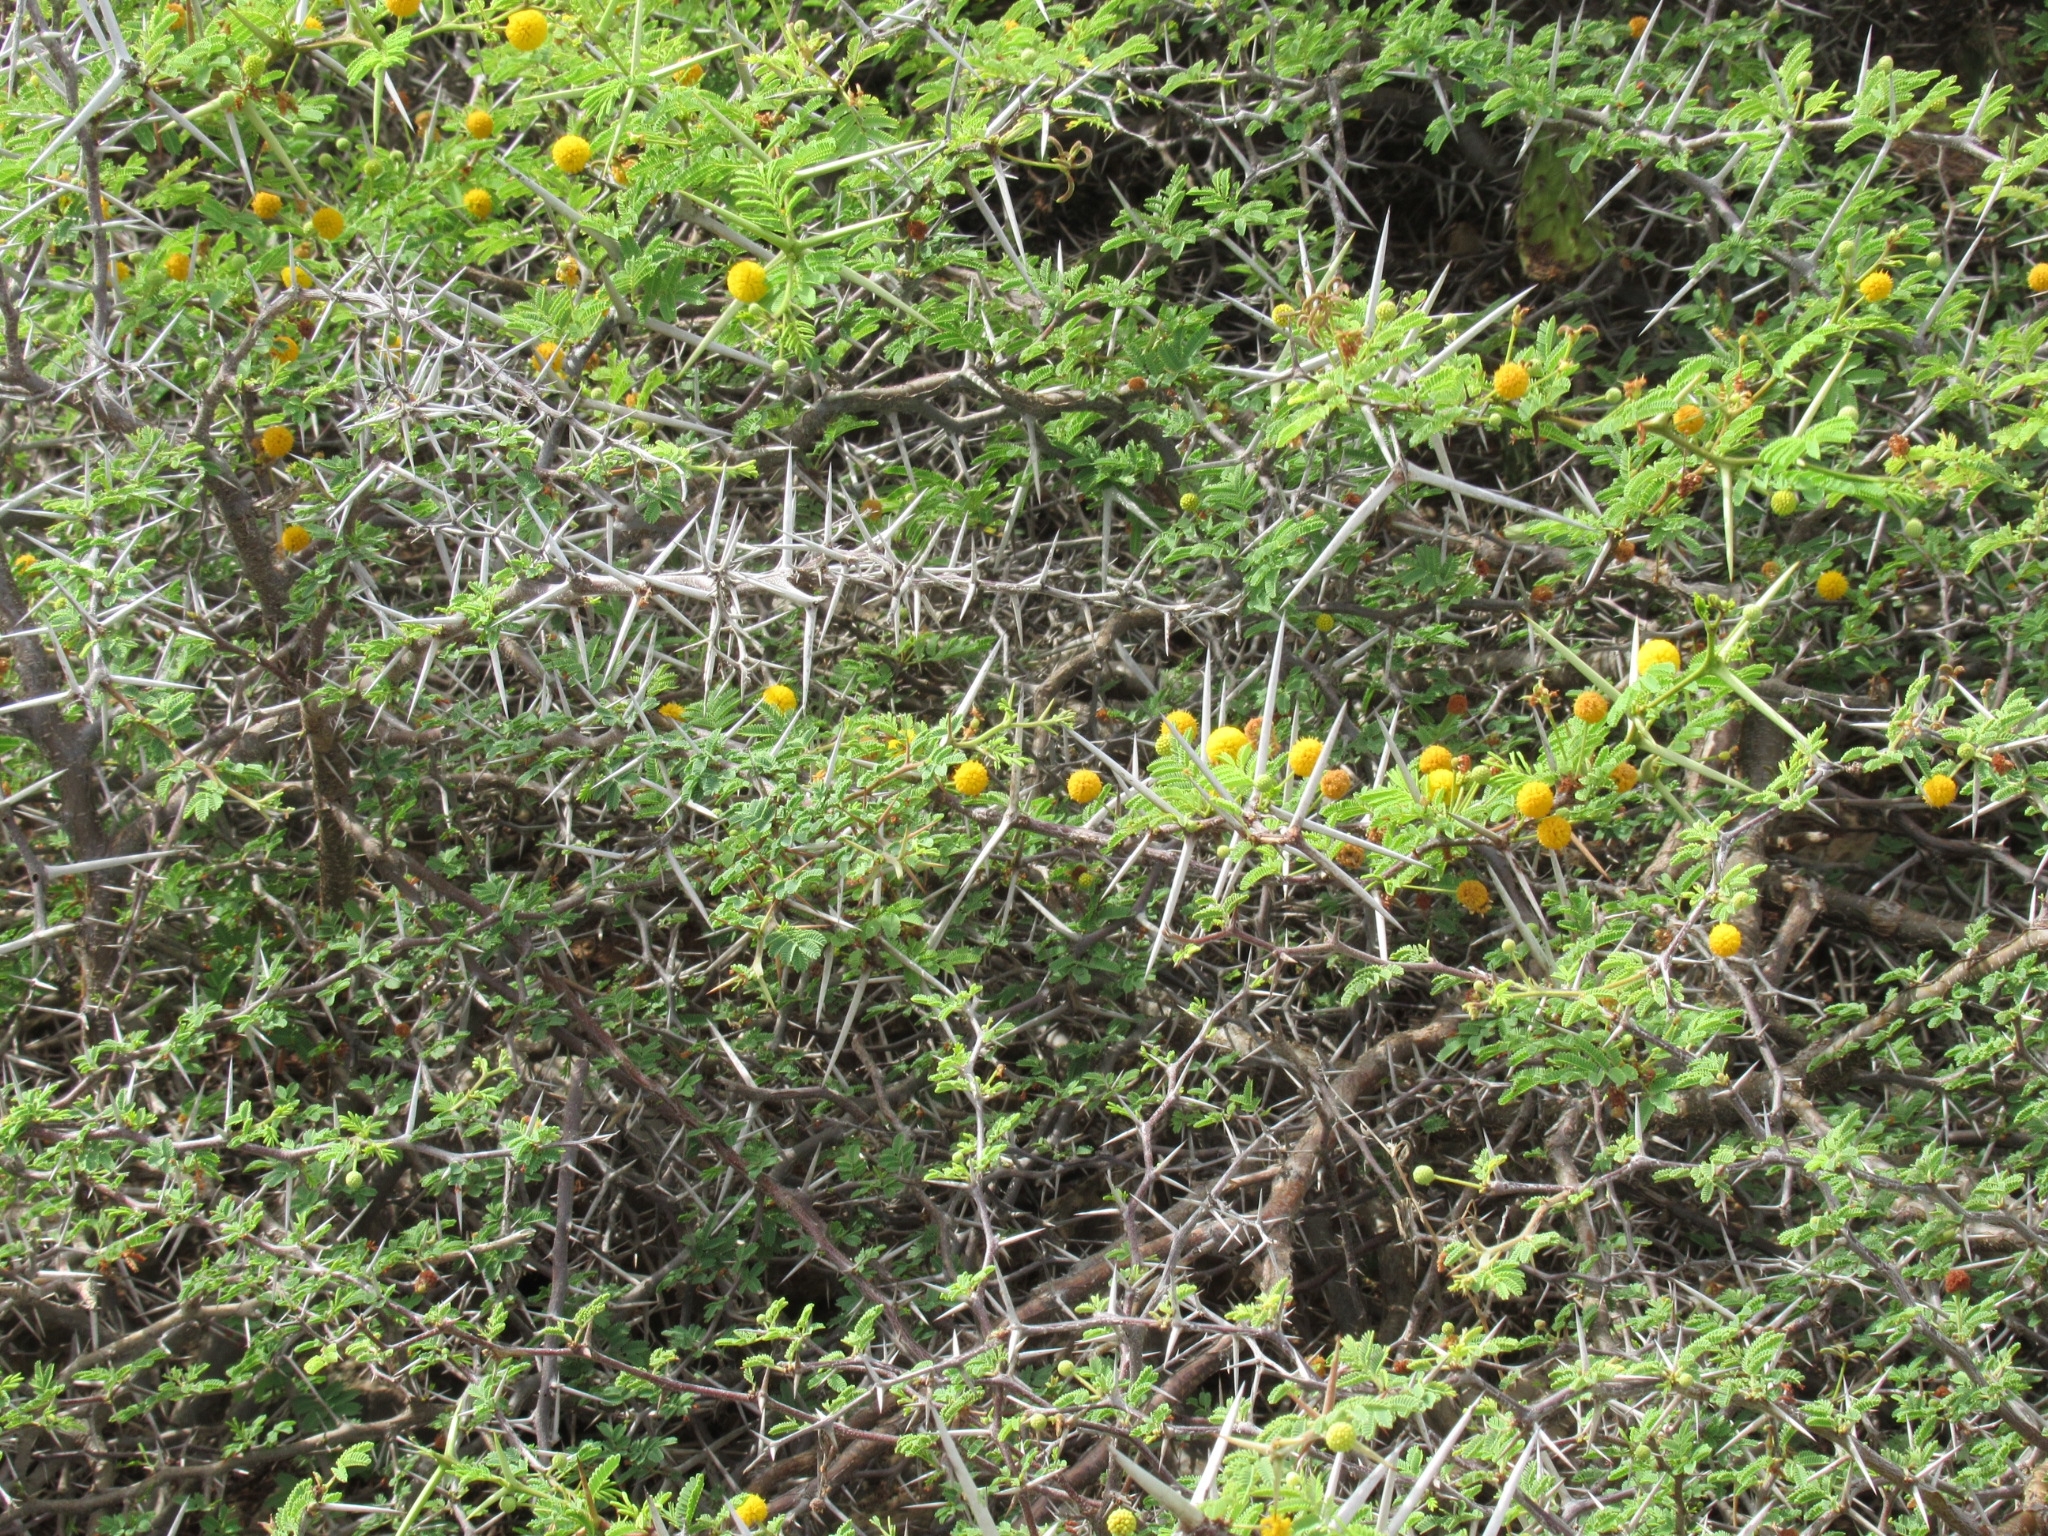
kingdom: Plantae
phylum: Tracheophyta
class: Magnoliopsida
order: Fabales
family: Fabaceae
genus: Vachellia
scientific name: Vachellia tortuosa
